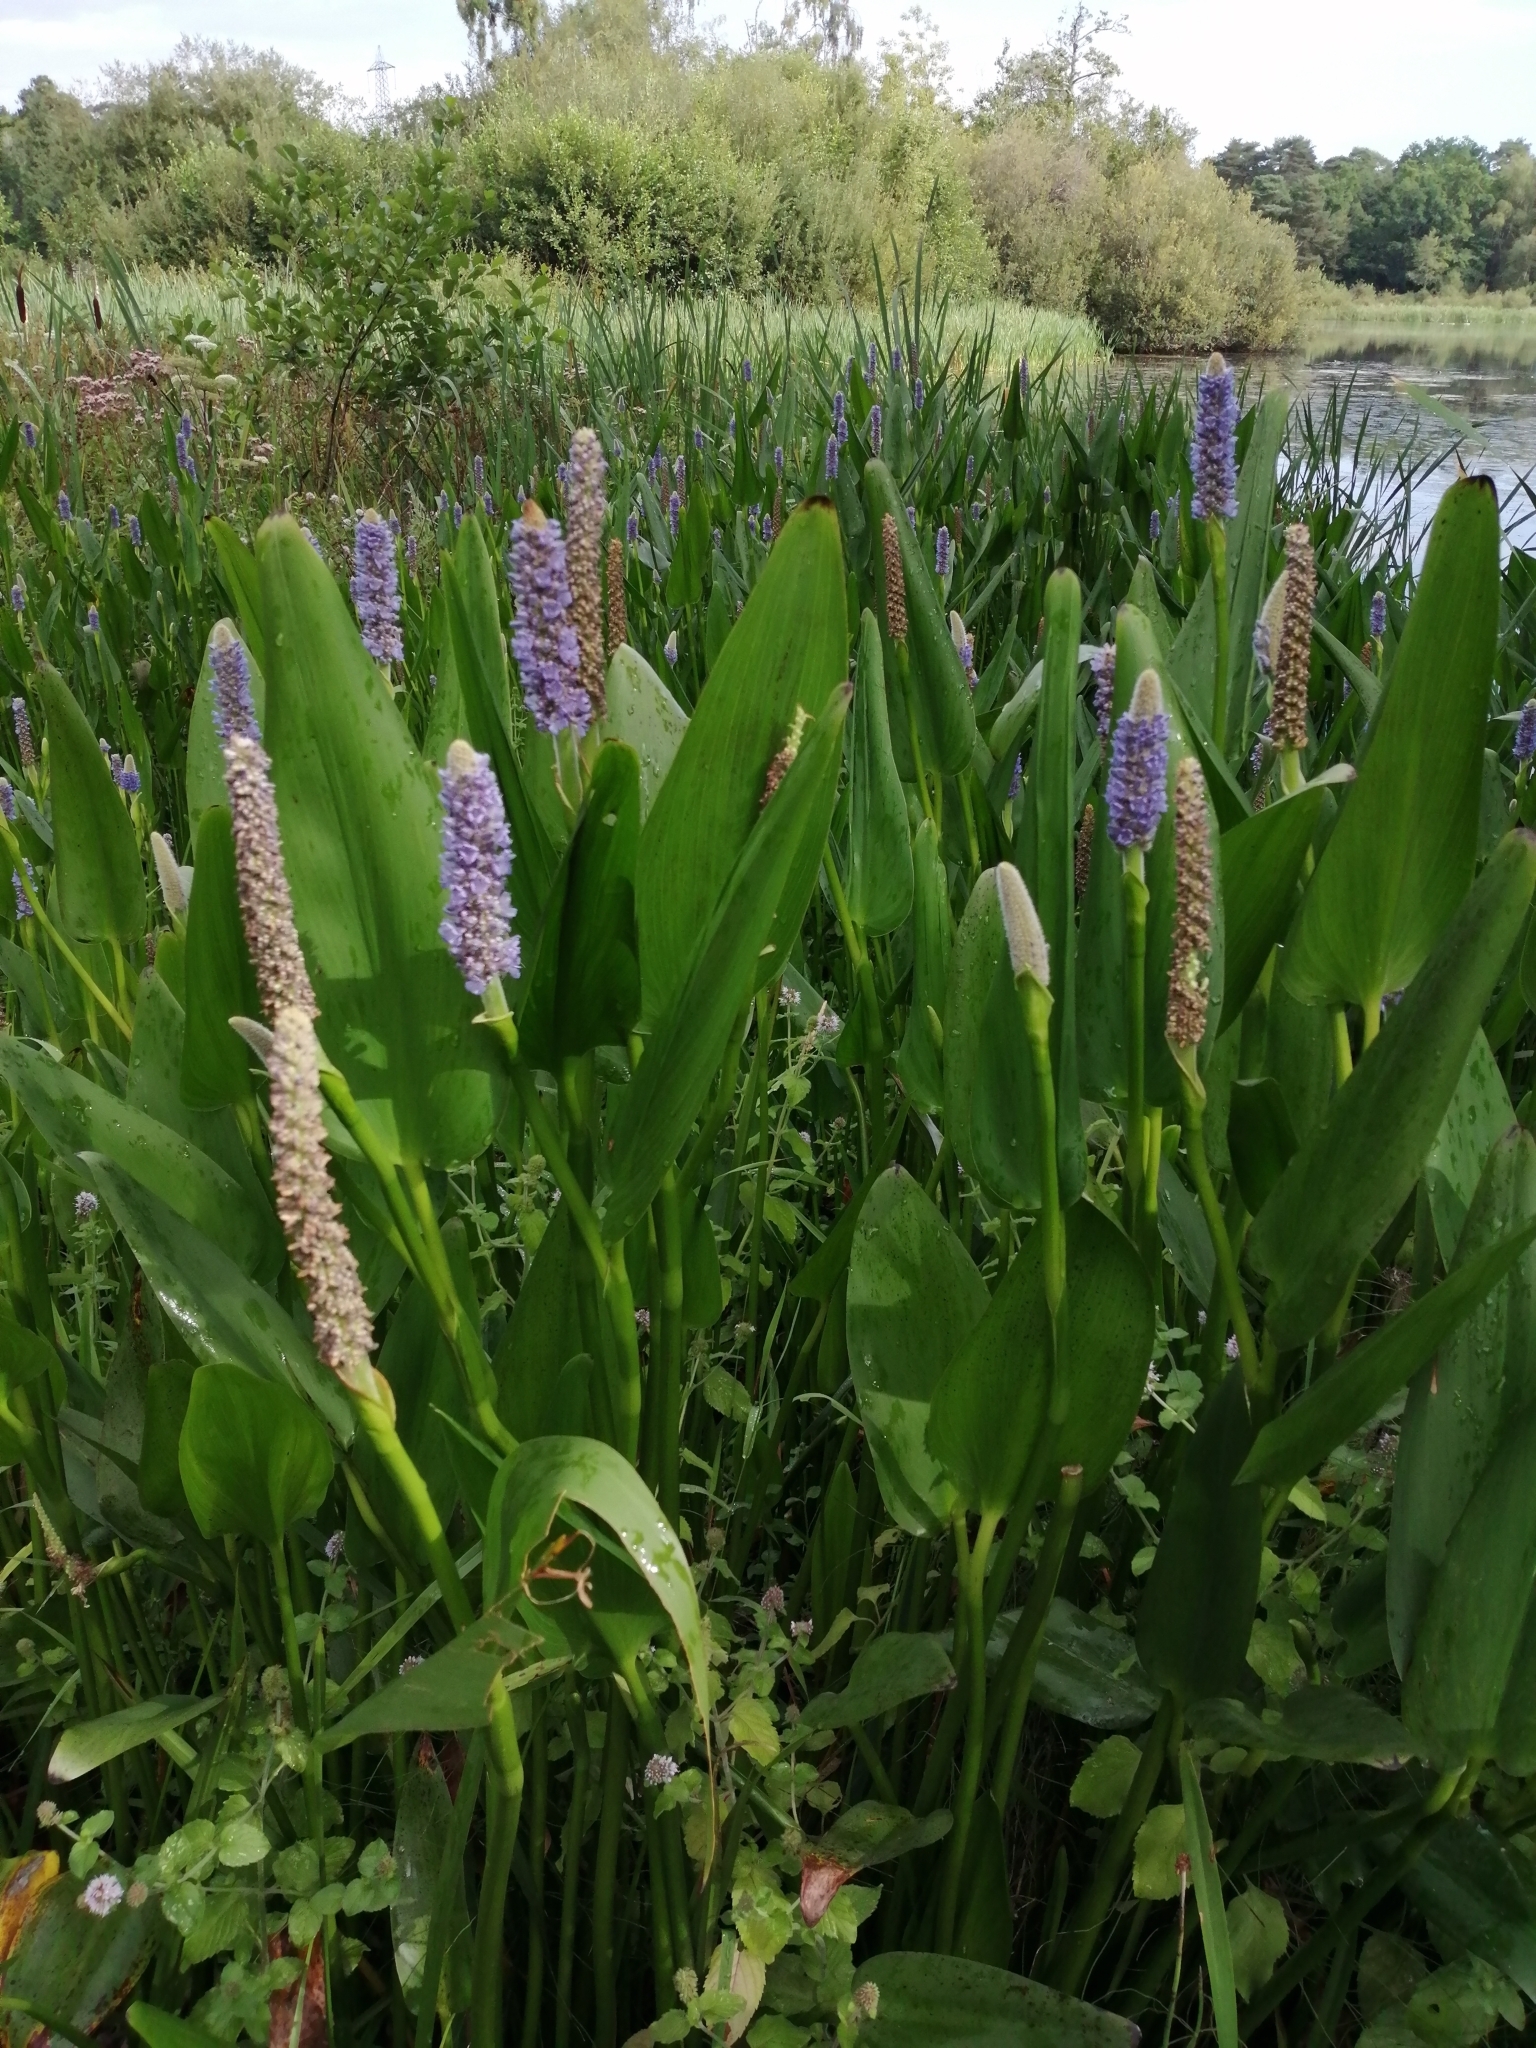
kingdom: Plantae
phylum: Tracheophyta
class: Liliopsida
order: Commelinales
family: Pontederiaceae
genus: Pontederia
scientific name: Pontederia cordata
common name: Pickerelweed
